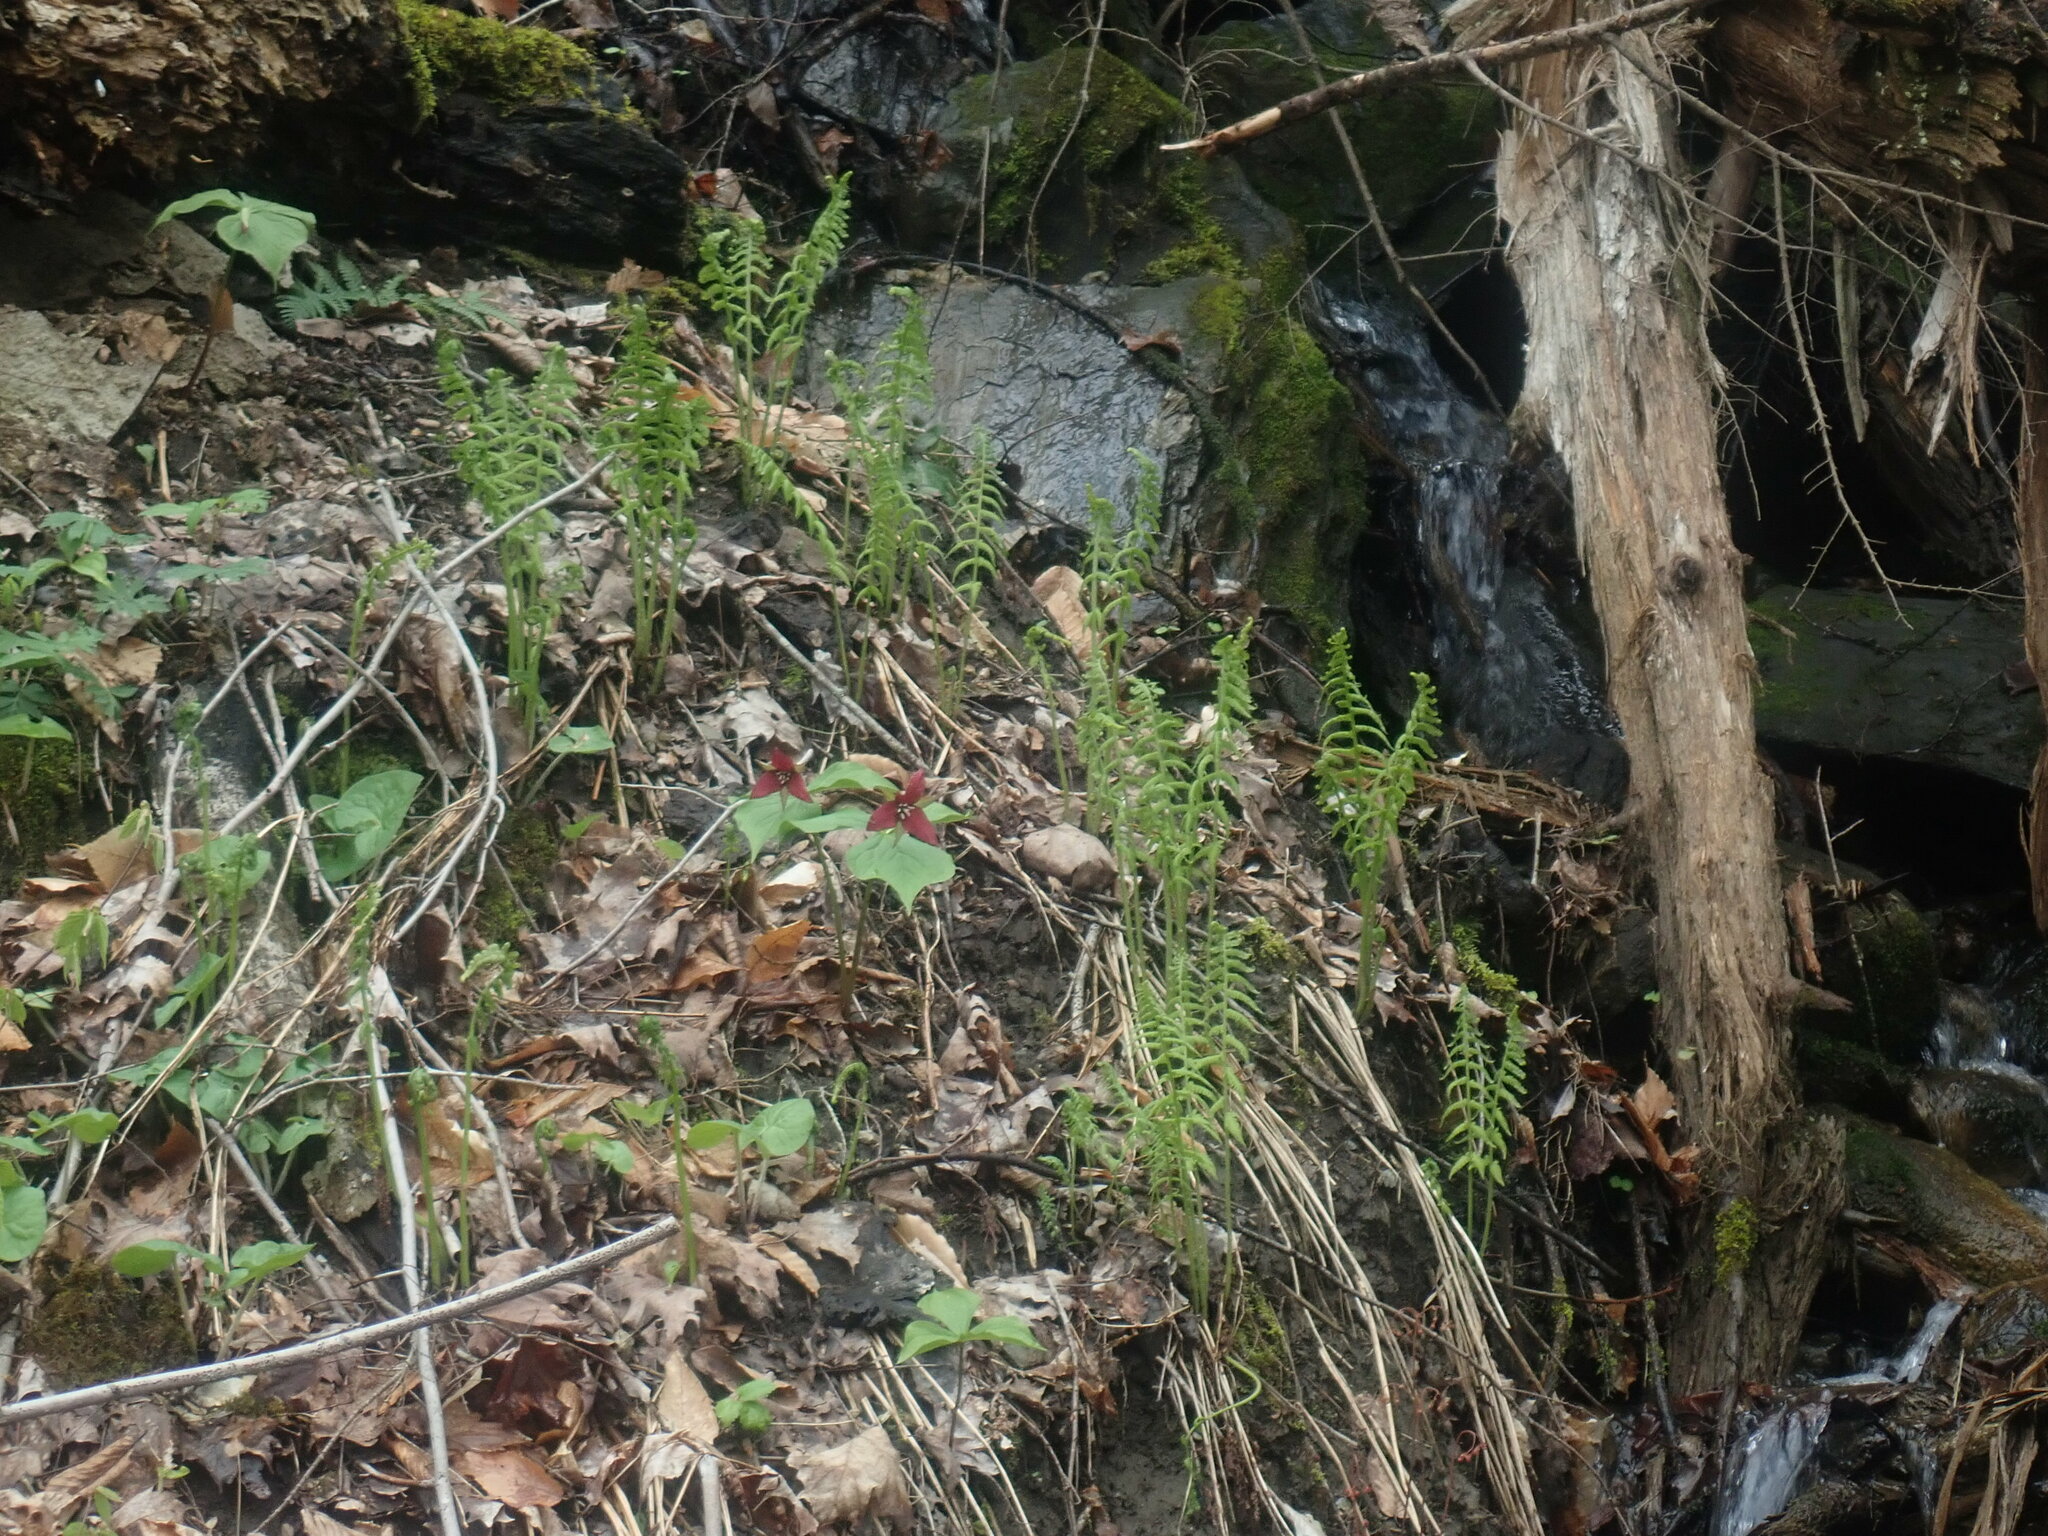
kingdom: Plantae
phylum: Tracheophyta
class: Liliopsida
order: Liliales
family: Melanthiaceae
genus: Trillium
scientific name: Trillium erectum
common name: Purple trillium
